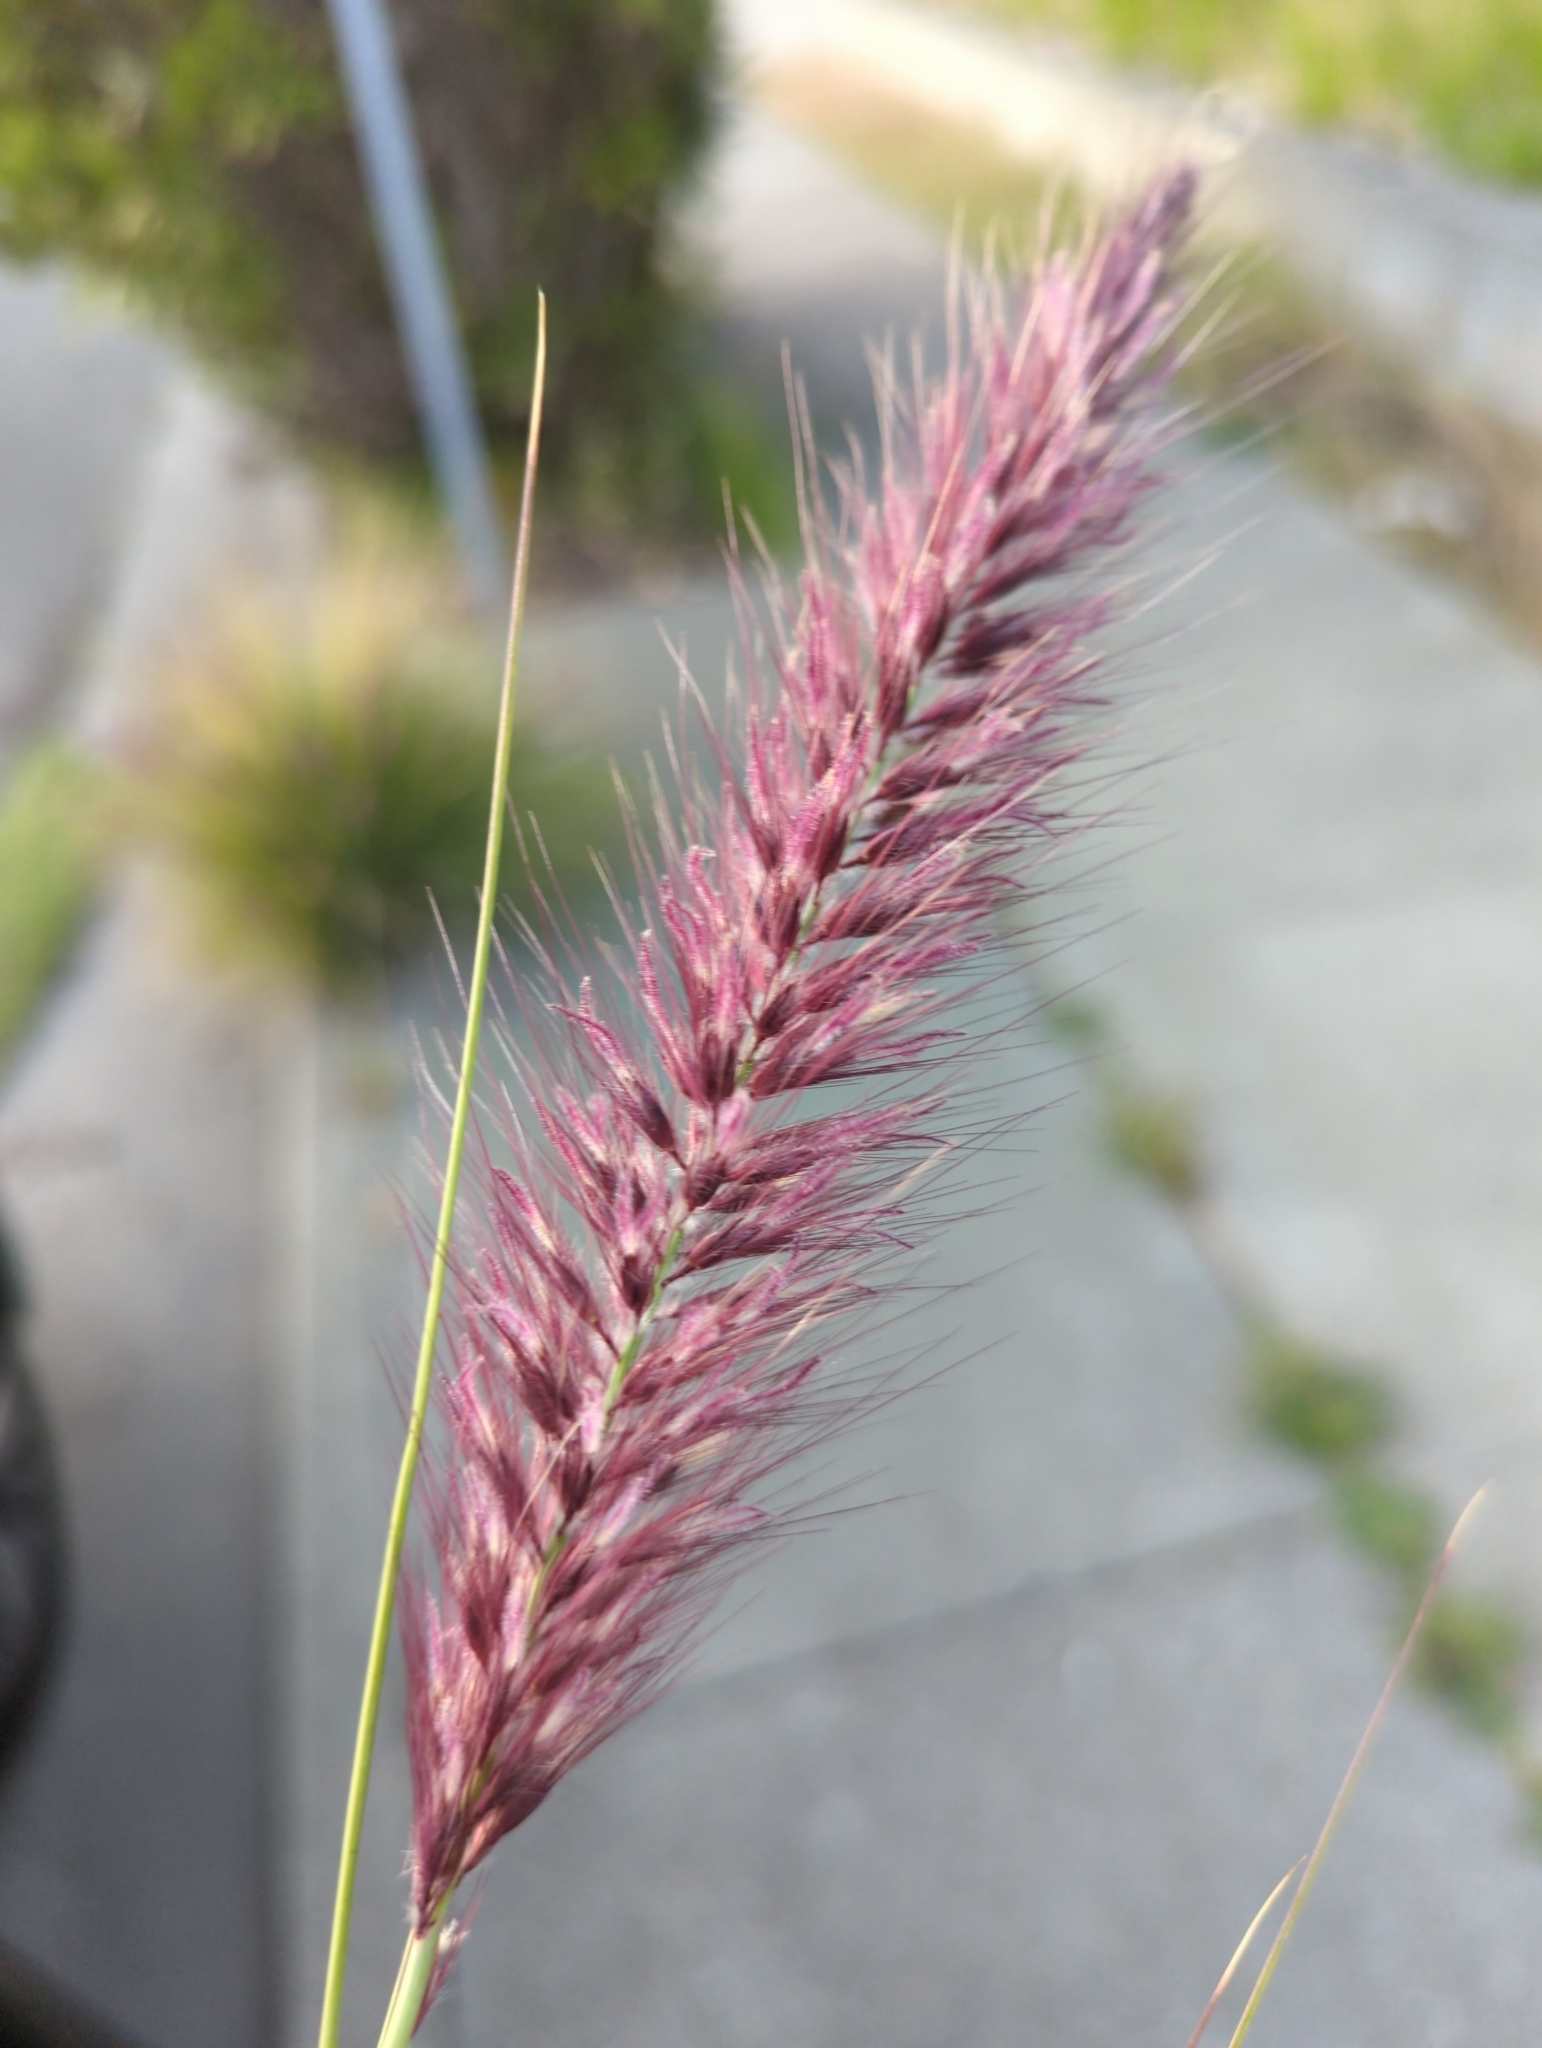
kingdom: Plantae
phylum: Tracheophyta
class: Liliopsida
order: Poales
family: Poaceae
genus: Cenchrus
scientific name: Cenchrus setaceus
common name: Crimson fountaingrass
